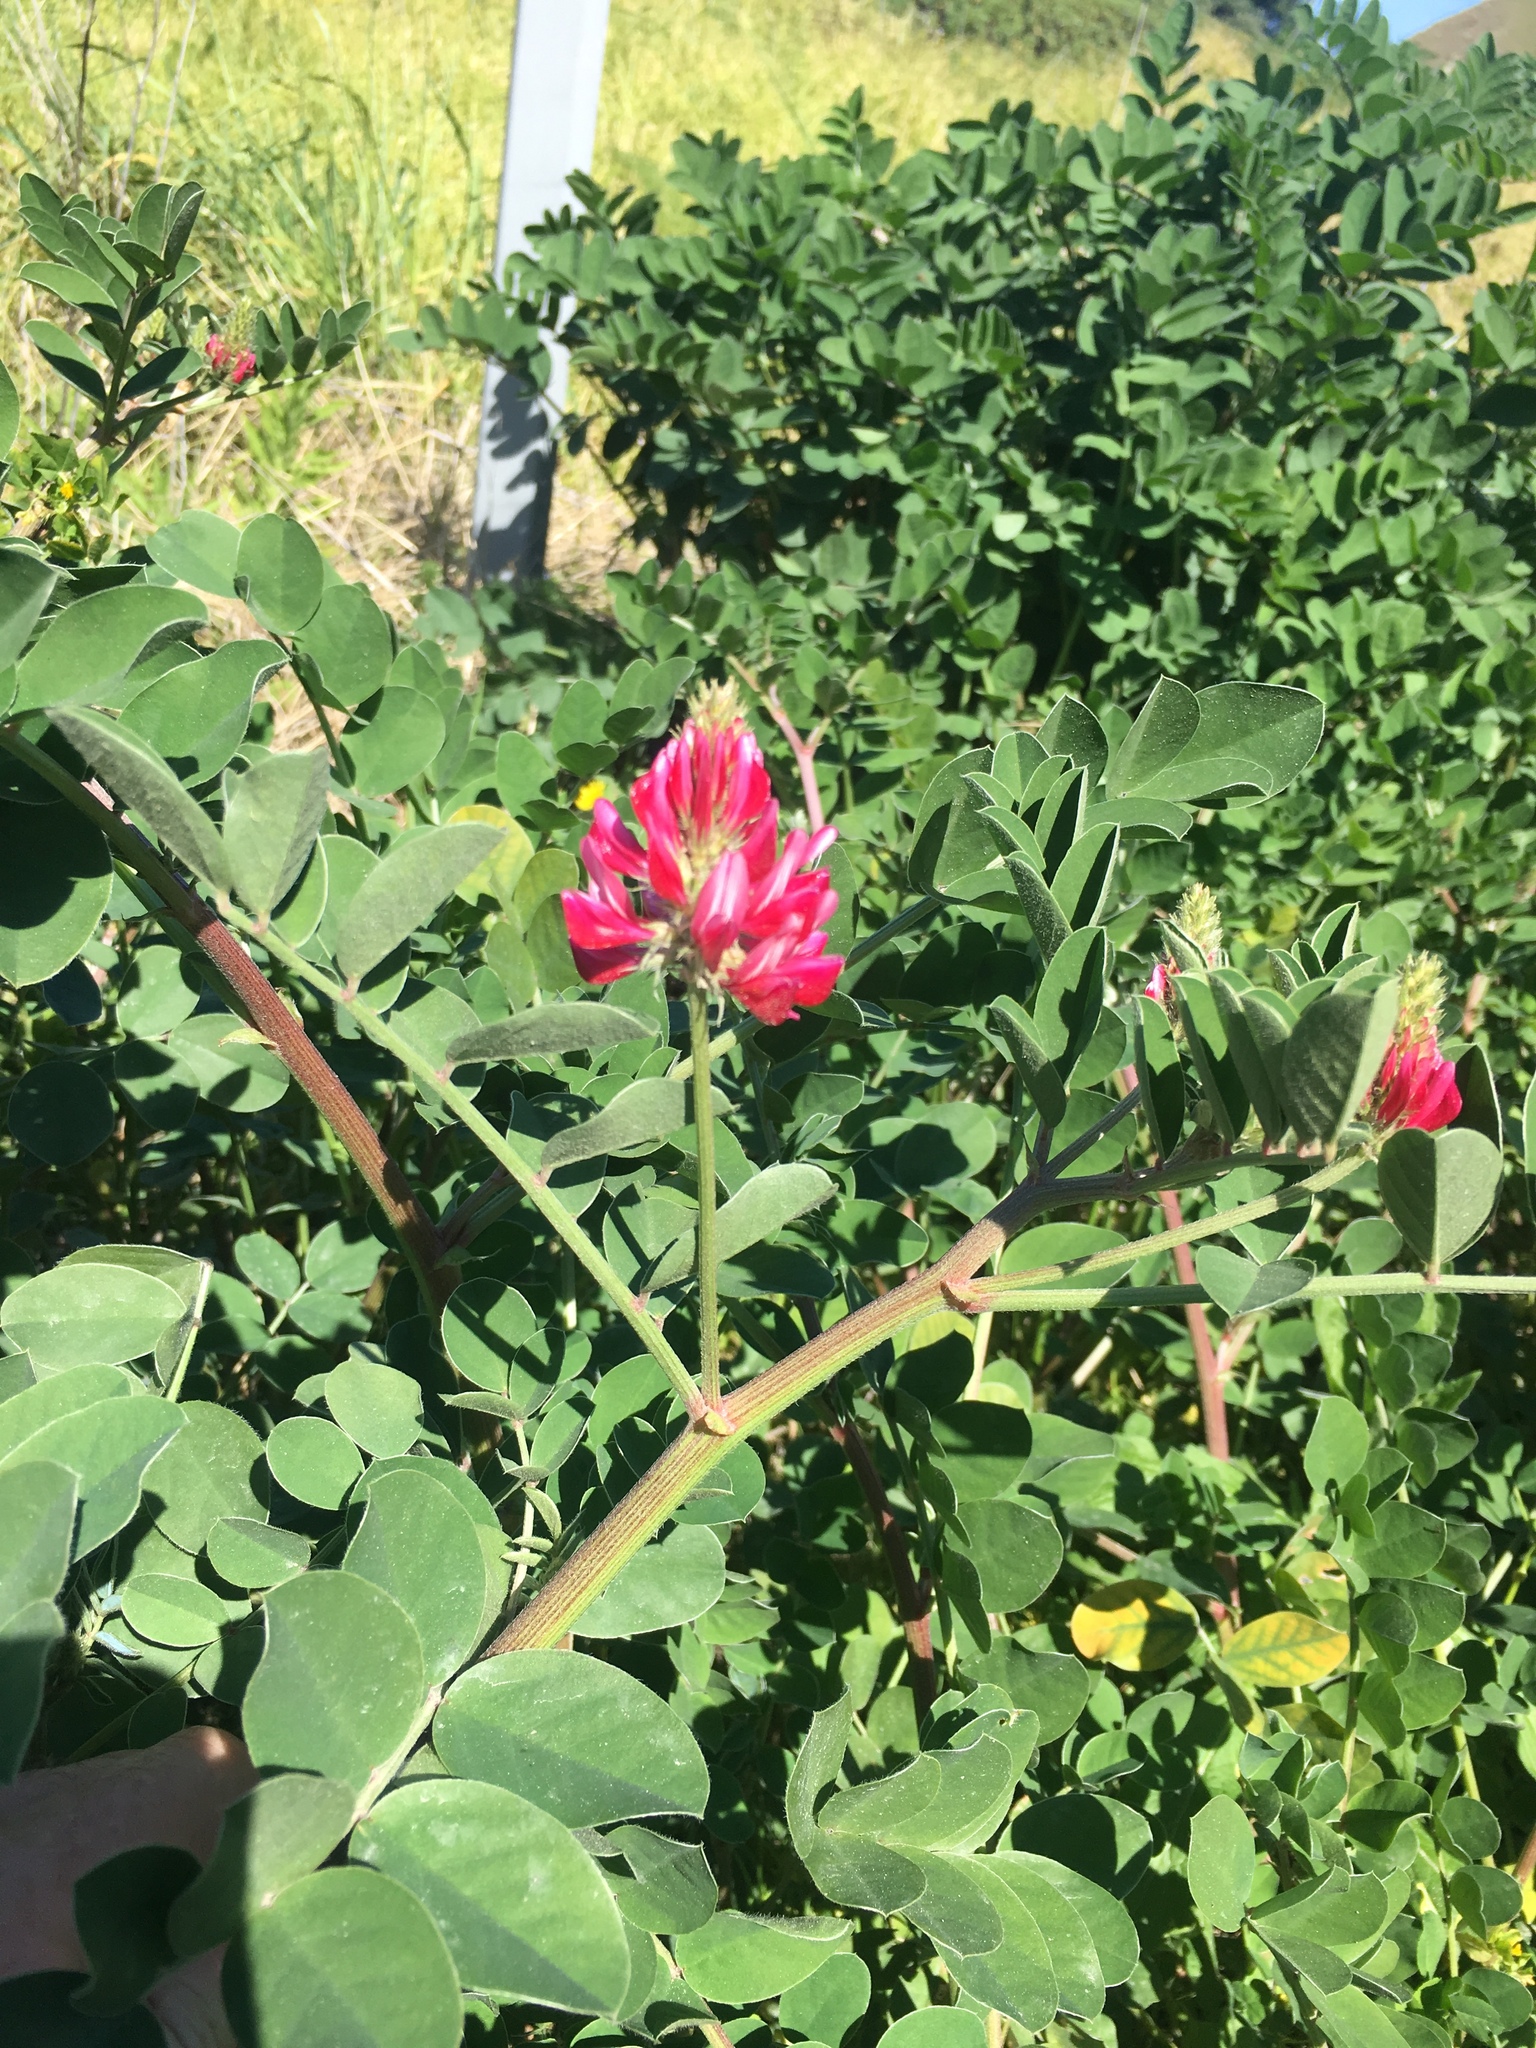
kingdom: Plantae
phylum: Tracheophyta
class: Magnoliopsida
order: Fabales
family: Fabaceae
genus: Sulla
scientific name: Sulla coronaria
